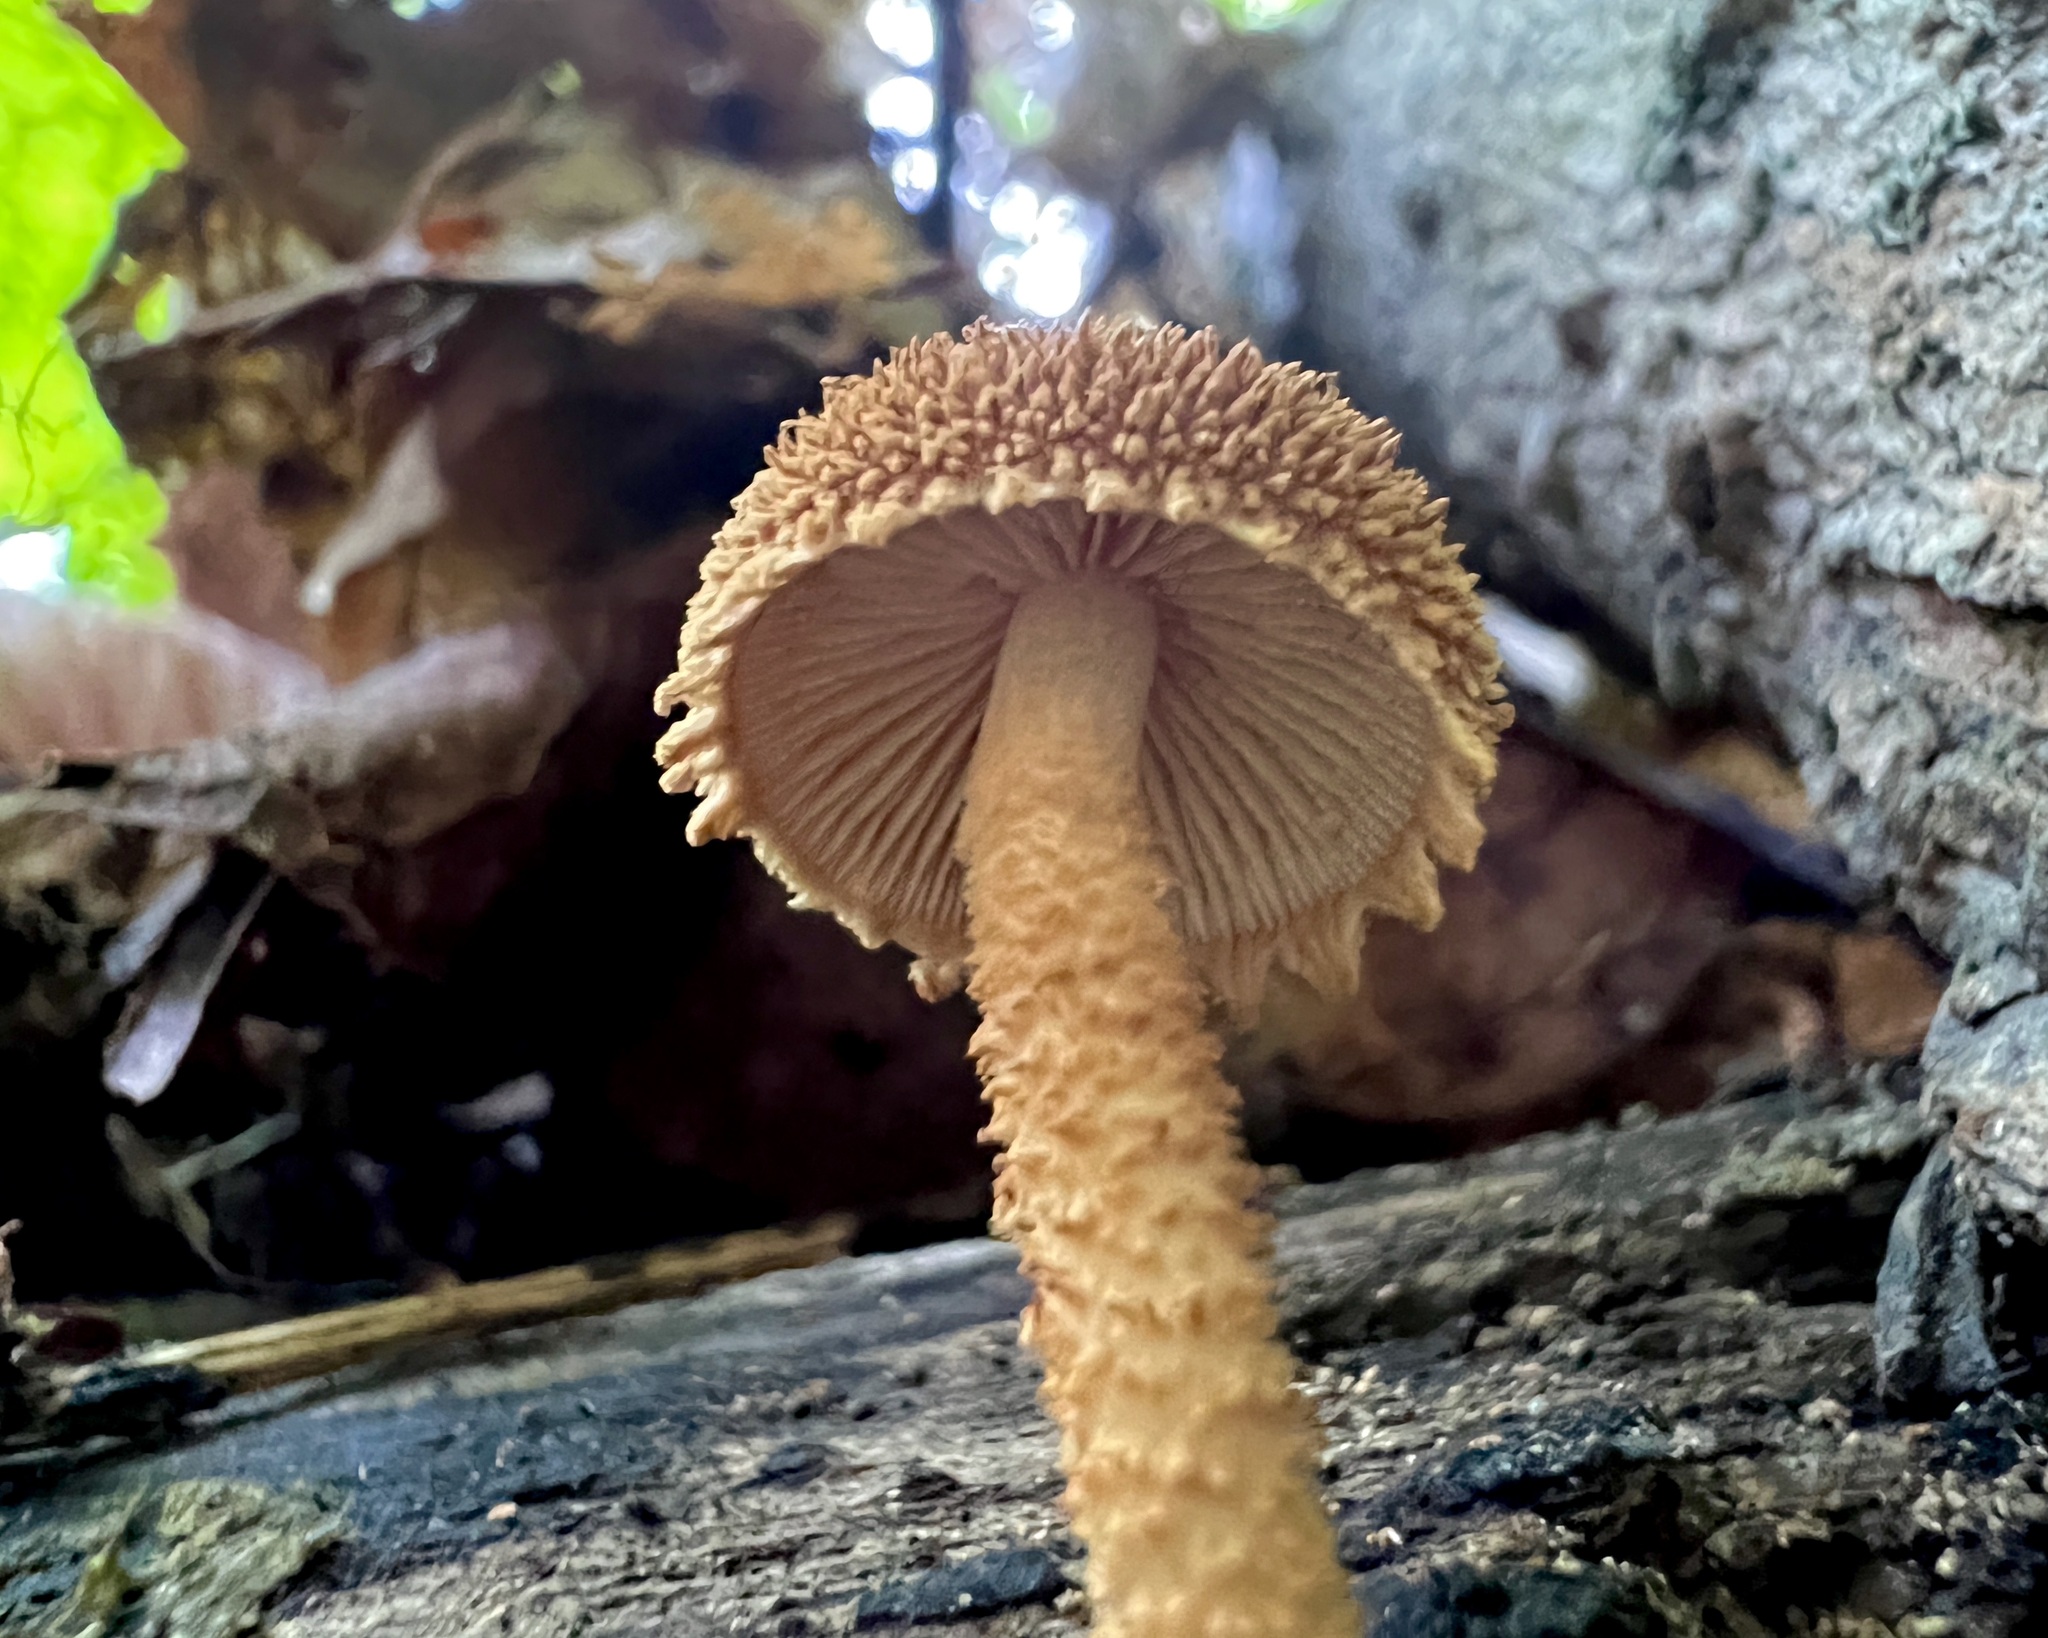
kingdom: Fungi
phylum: Basidiomycota
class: Agaricomycetes
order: Agaricales
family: Tubariaceae
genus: Flammulaster
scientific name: Flammulaster erinaceellus
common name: Powder-scale pholiota
